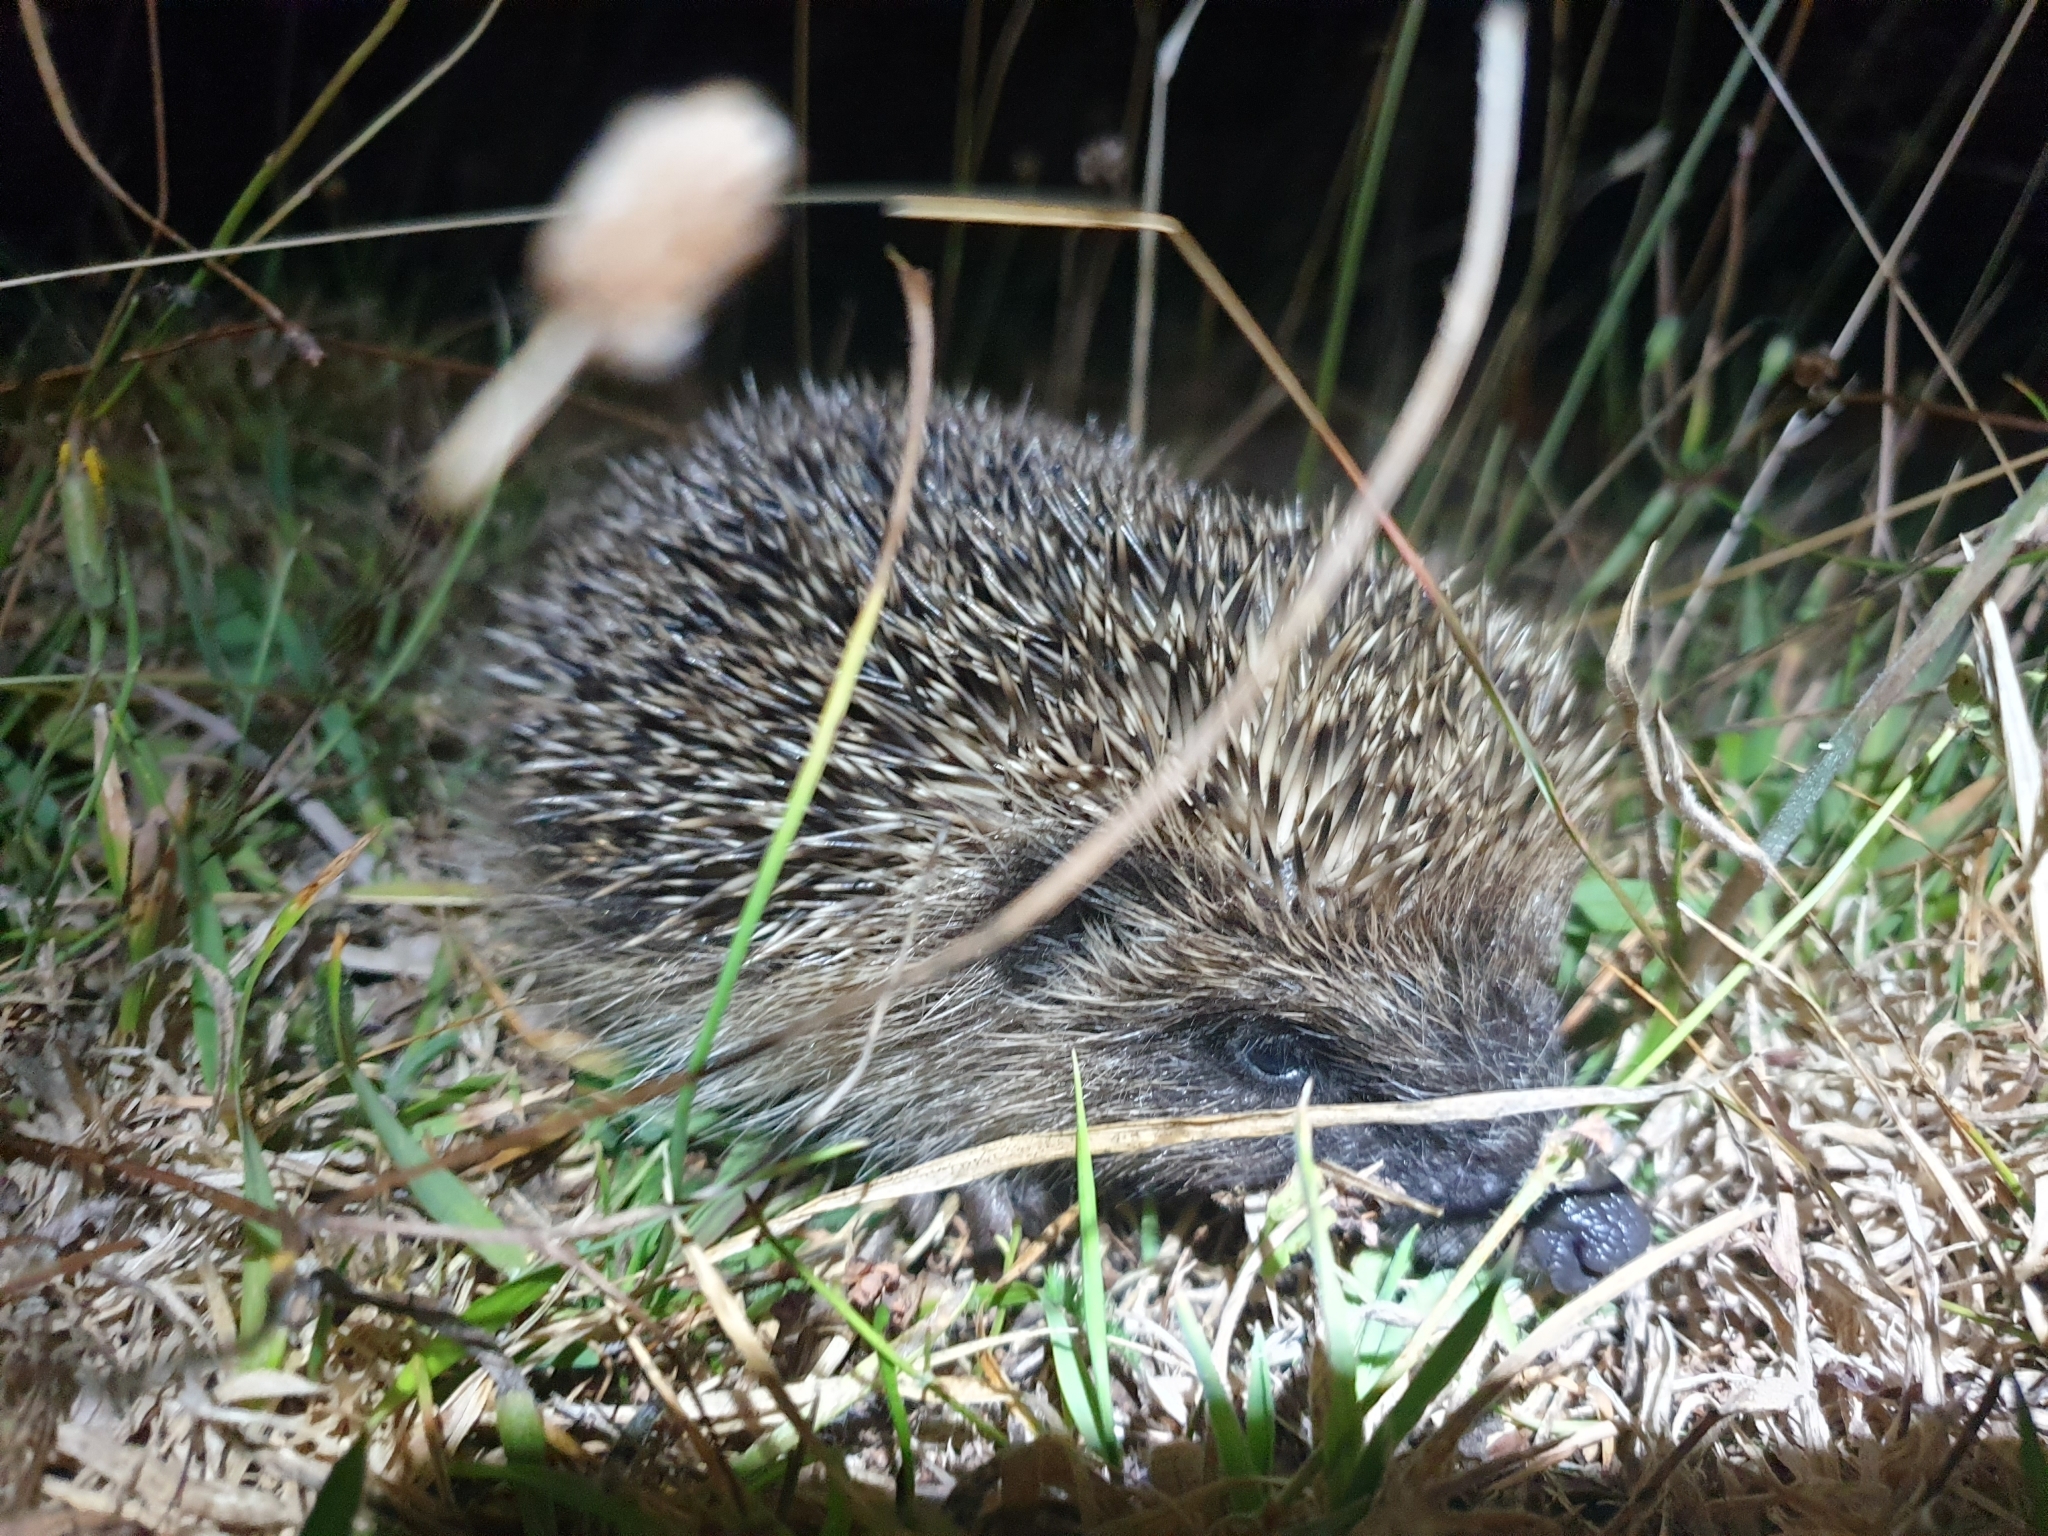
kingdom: Animalia
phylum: Chordata
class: Mammalia
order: Erinaceomorpha
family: Erinaceidae
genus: Erinaceus
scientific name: Erinaceus europaeus
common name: West european hedgehog
